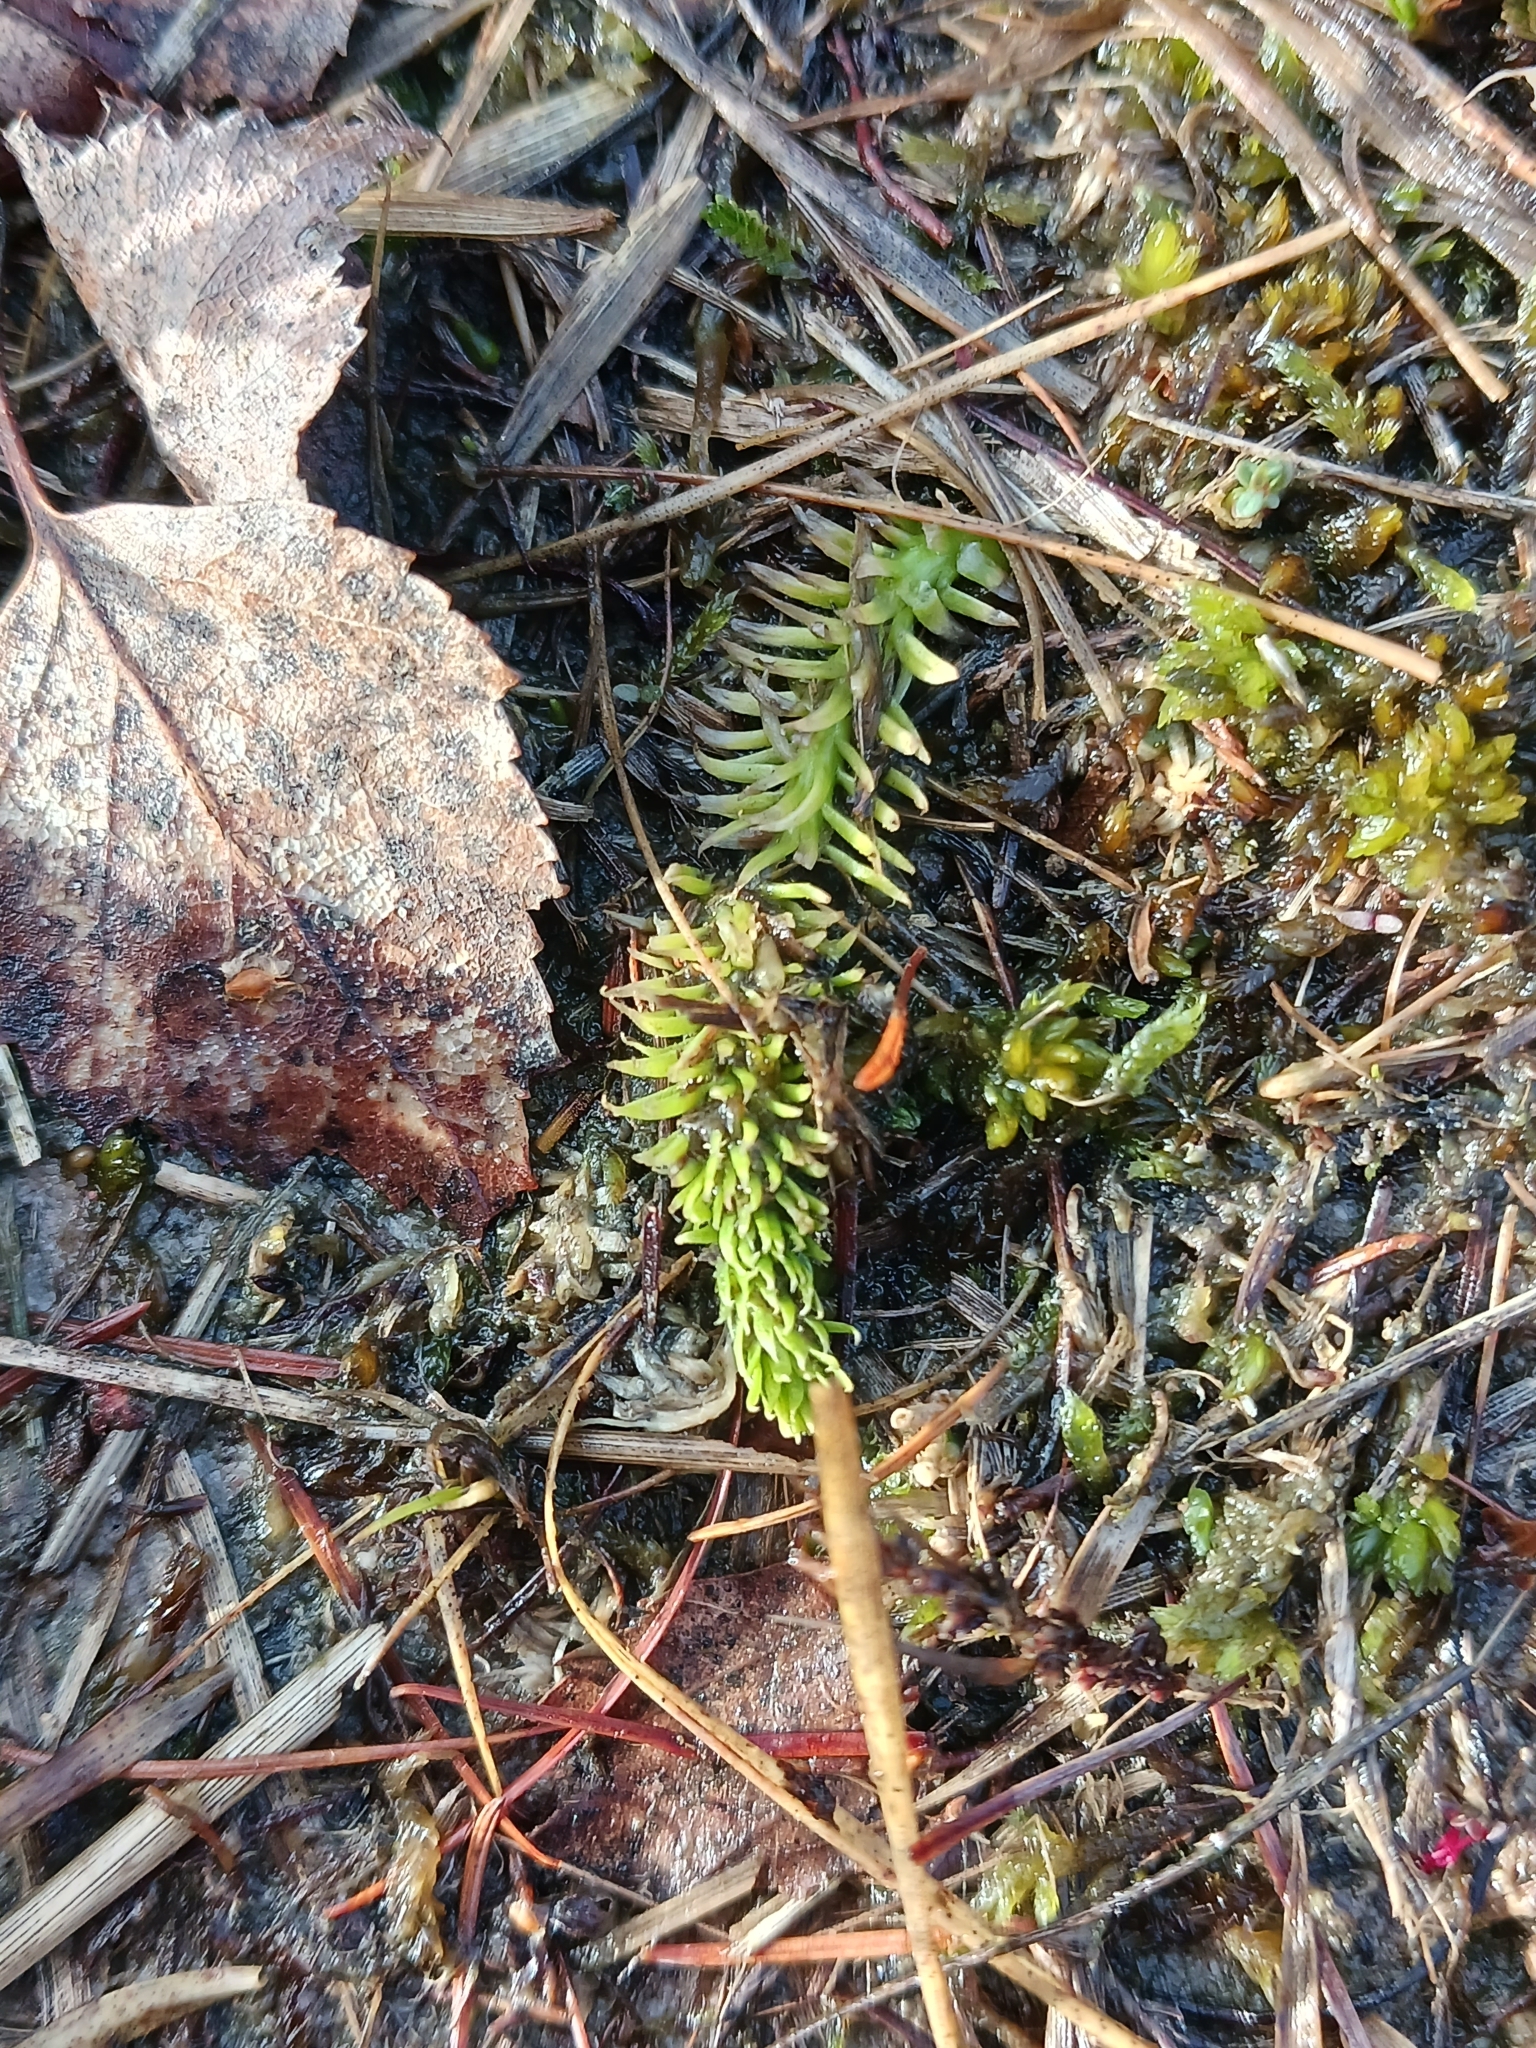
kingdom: Plantae
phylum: Tracheophyta
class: Lycopodiopsida
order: Lycopodiales
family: Lycopodiaceae
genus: Lycopodiella
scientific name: Lycopodiella inundata
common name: Marsh clubmoss
